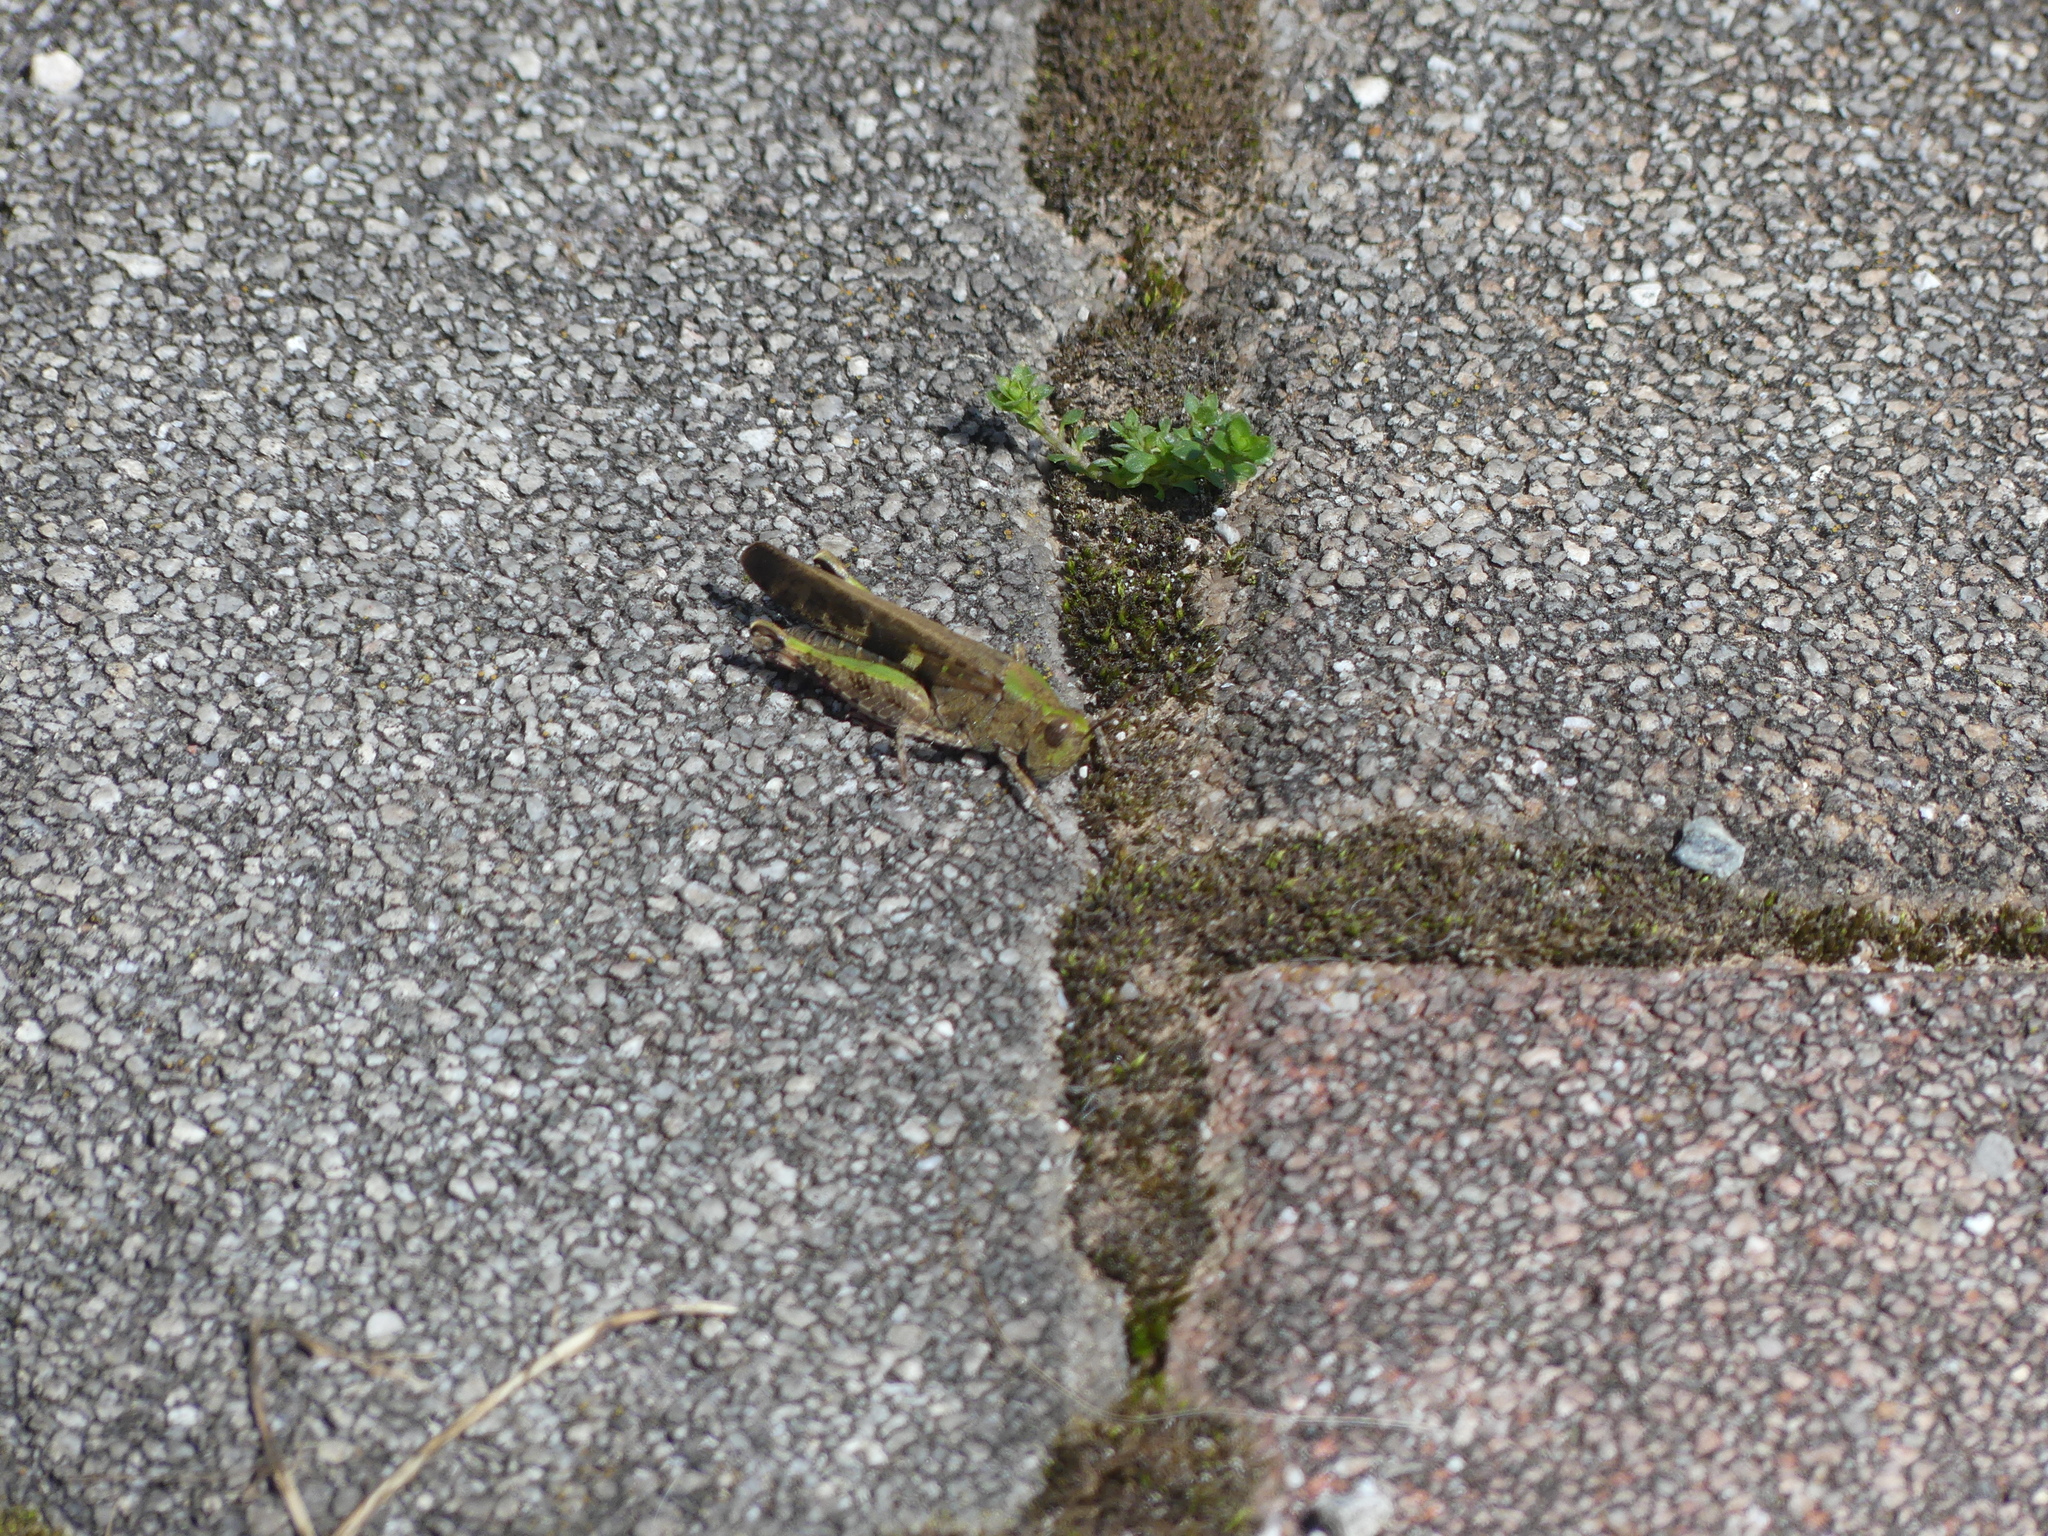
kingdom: Animalia
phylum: Arthropoda
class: Insecta
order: Orthoptera
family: Acrididae
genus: Aiolopus
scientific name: Aiolopus strepens
